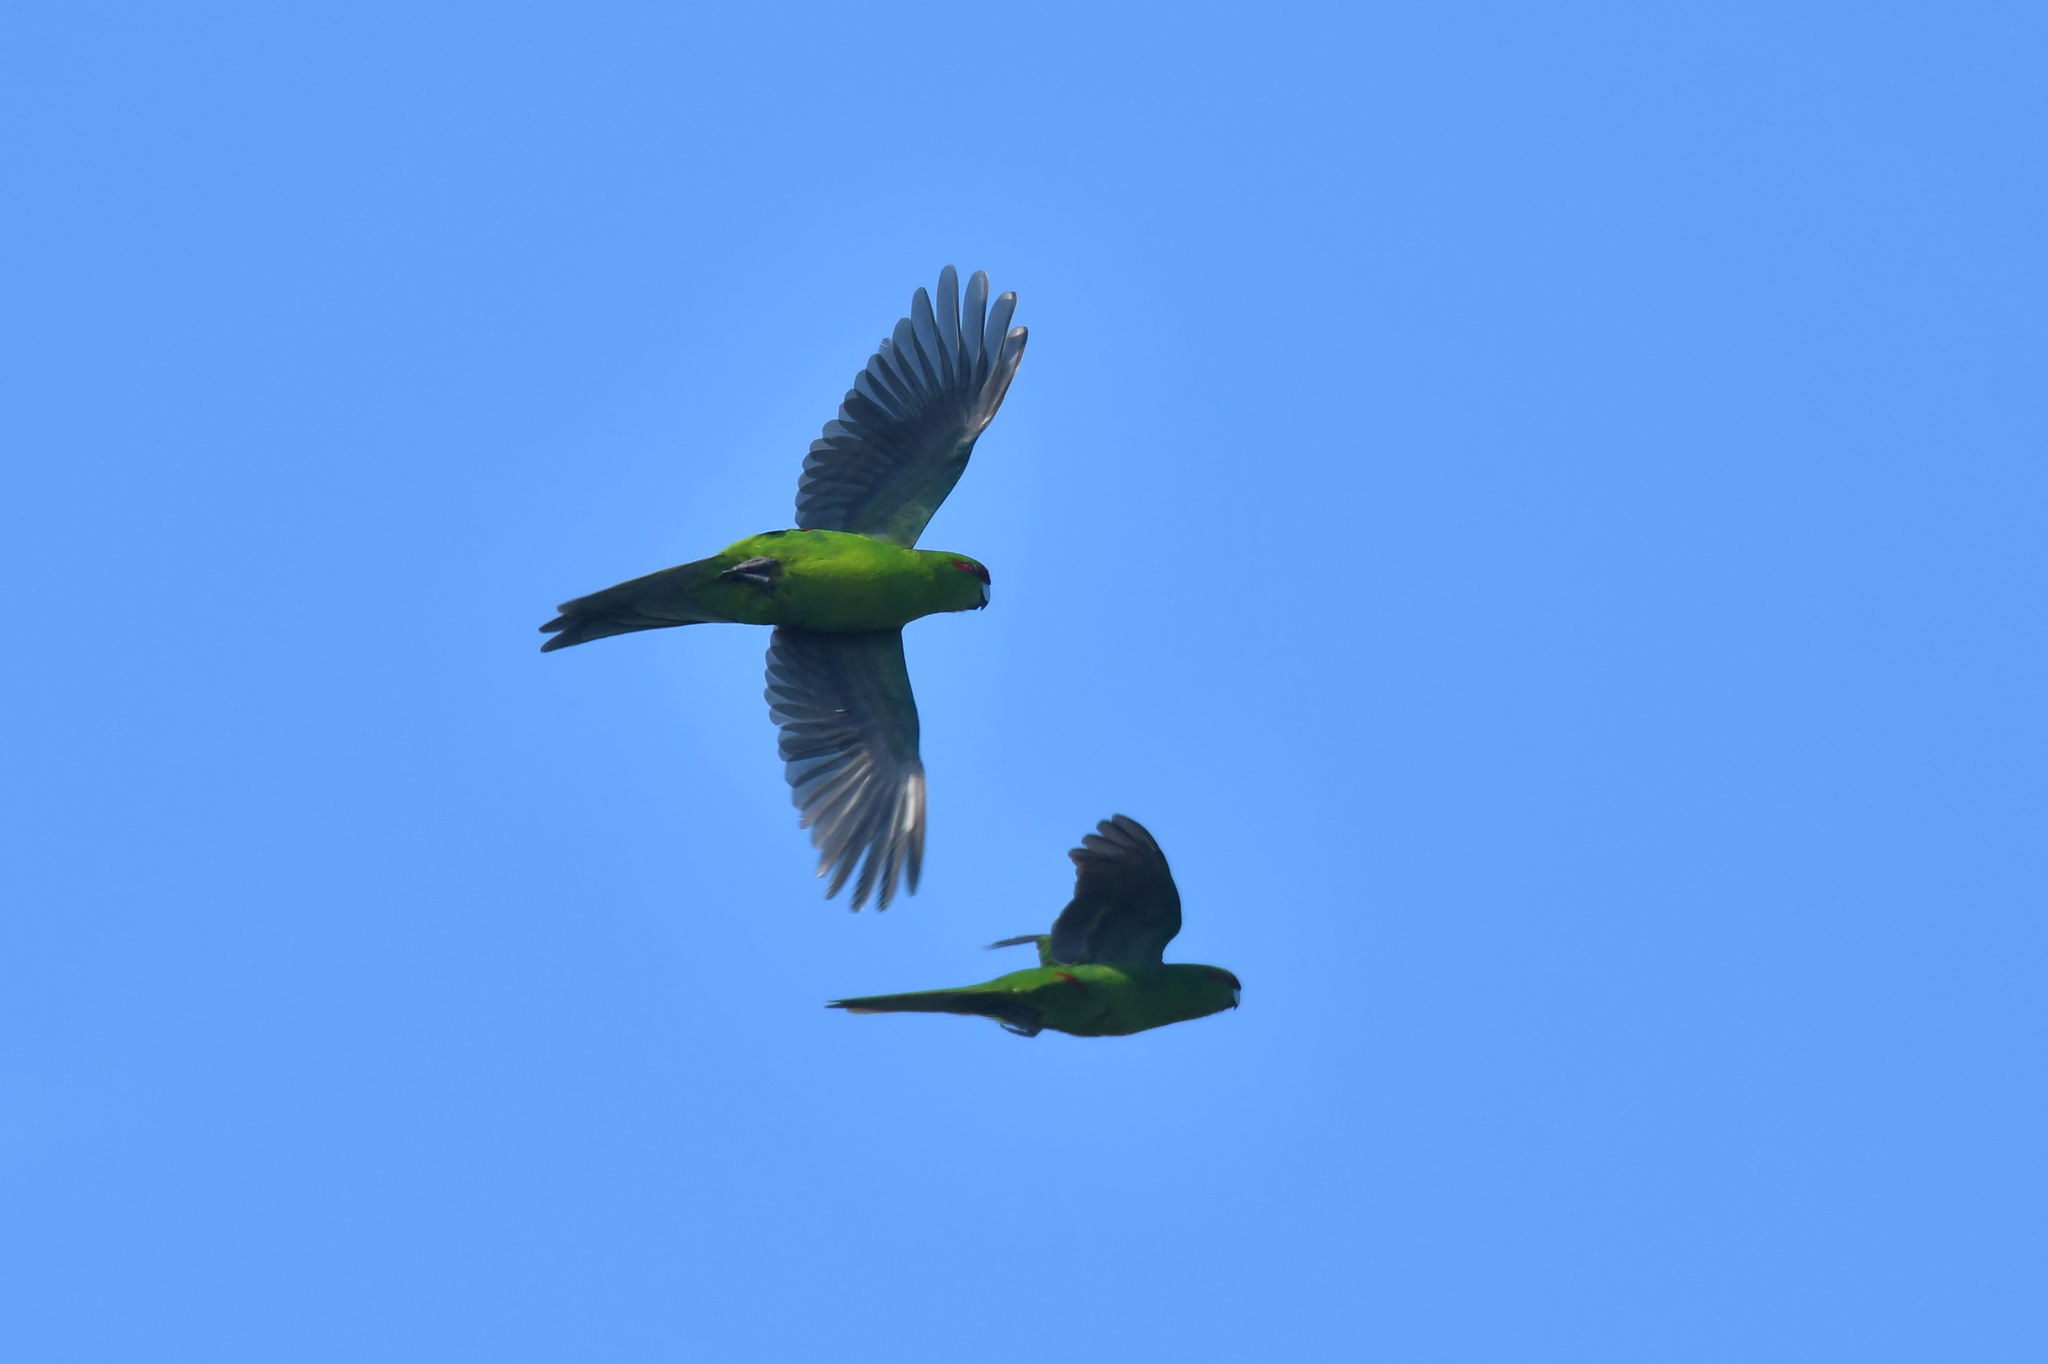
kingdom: Animalia
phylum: Chordata
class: Aves
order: Psittaciformes
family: Psittacidae
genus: Cyanoramphus
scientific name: Cyanoramphus novaezelandiae
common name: Red-fronted parakeet
